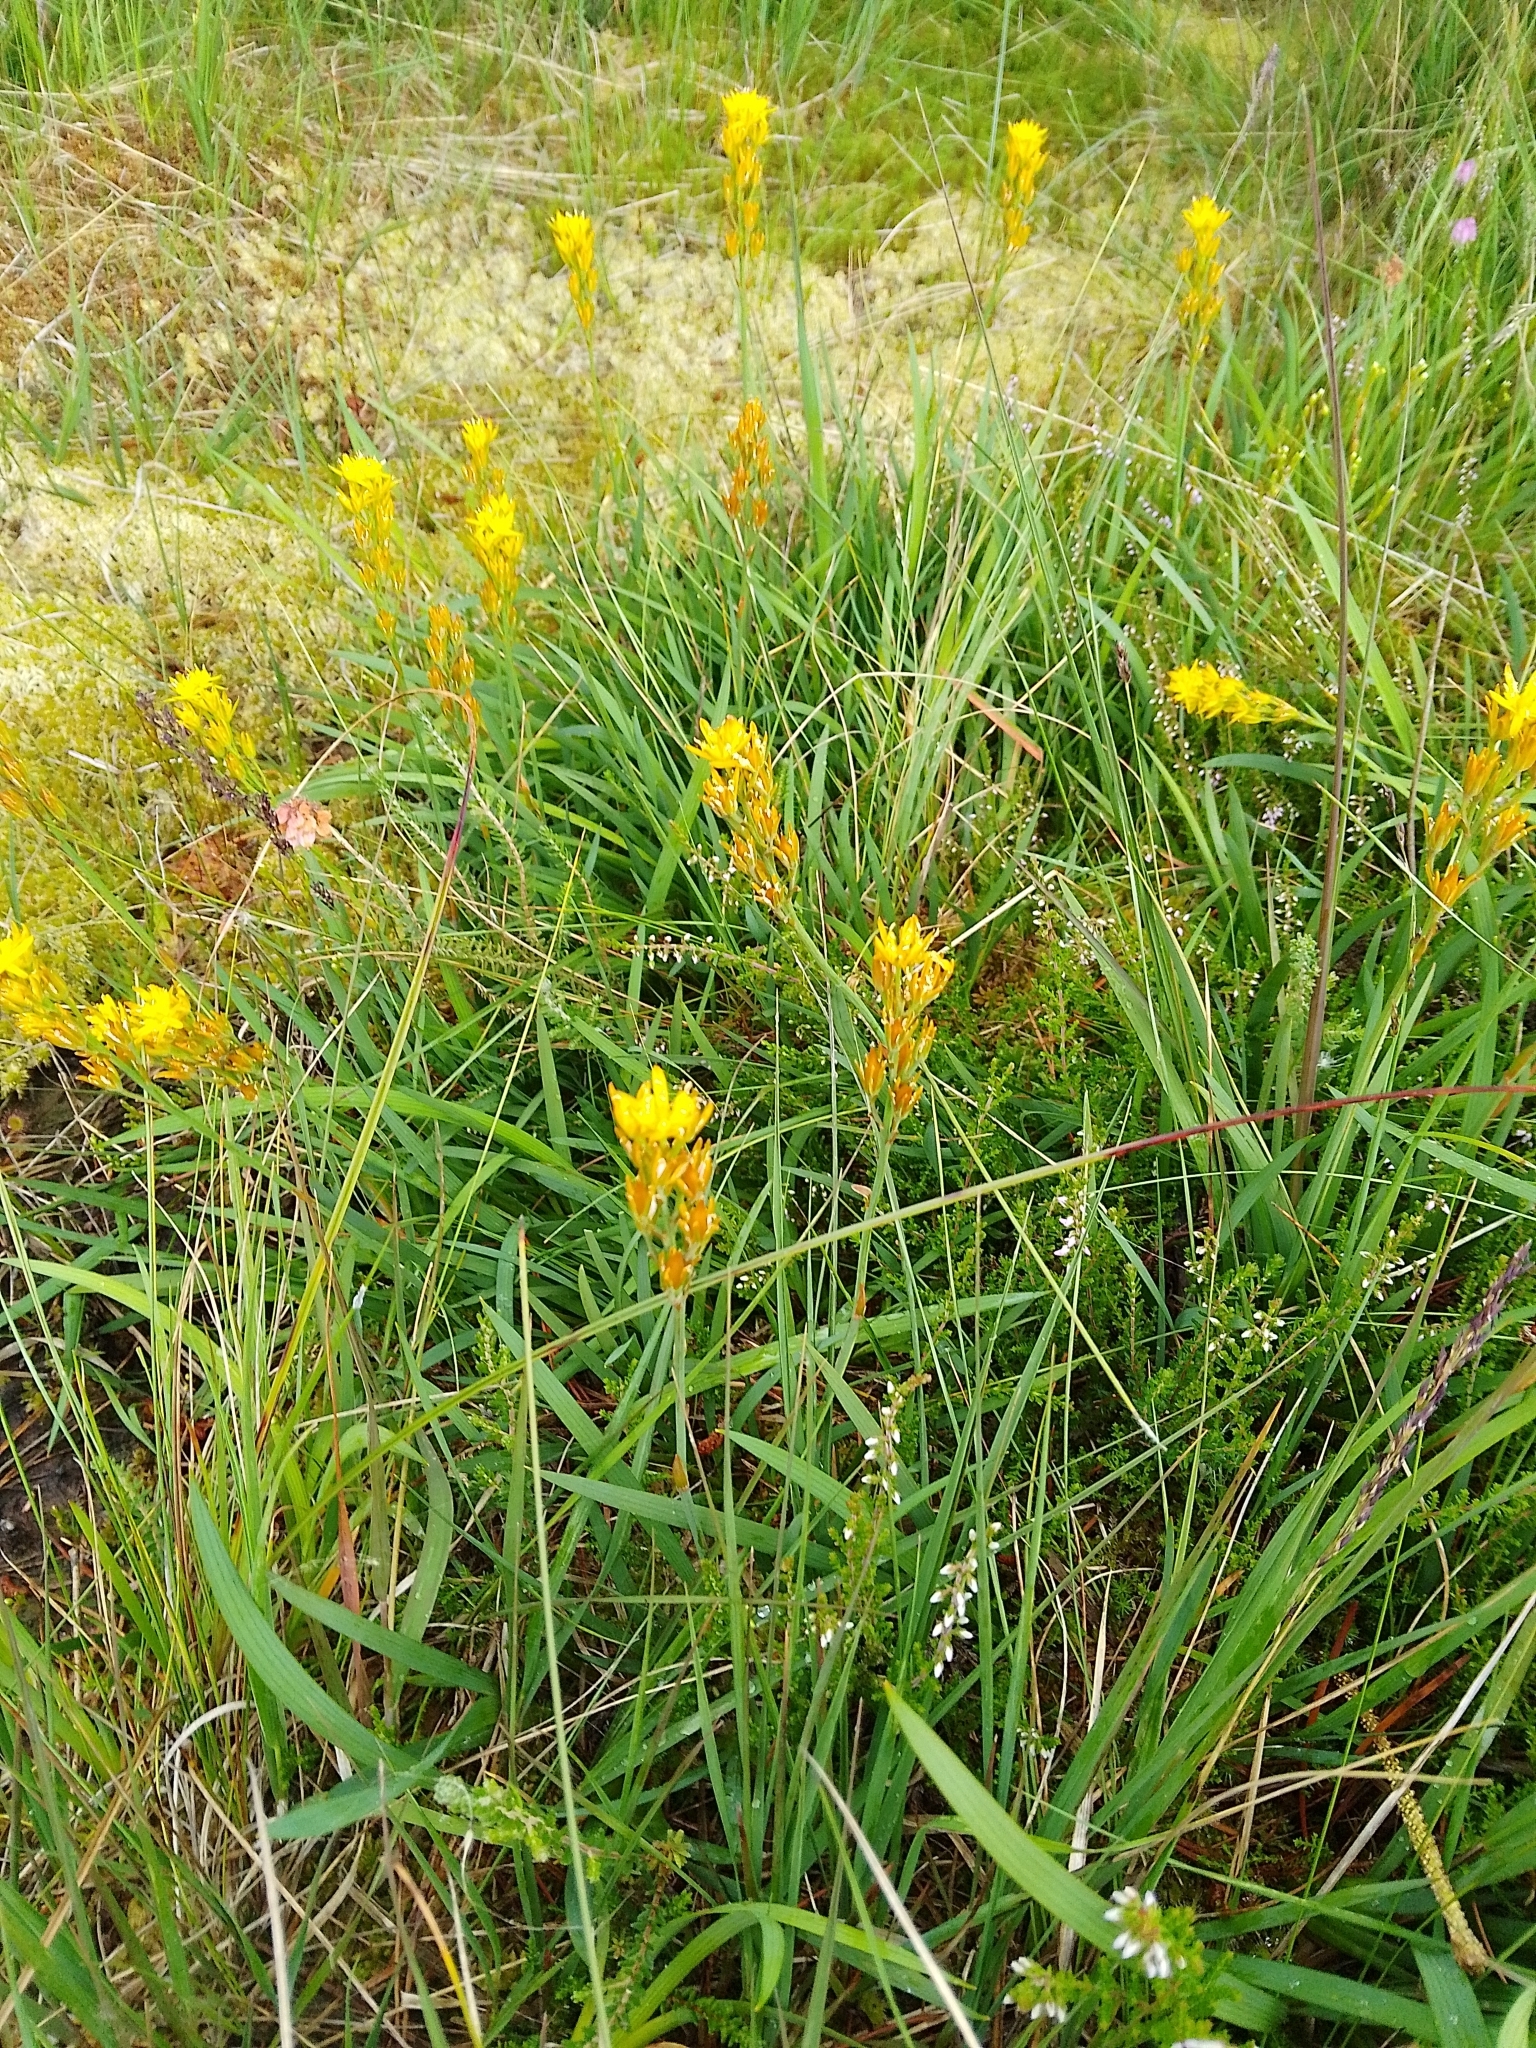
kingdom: Plantae
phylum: Tracheophyta
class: Liliopsida
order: Dioscoreales
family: Nartheciaceae
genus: Narthecium
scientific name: Narthecium ossifragum
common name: Bog asphodel
